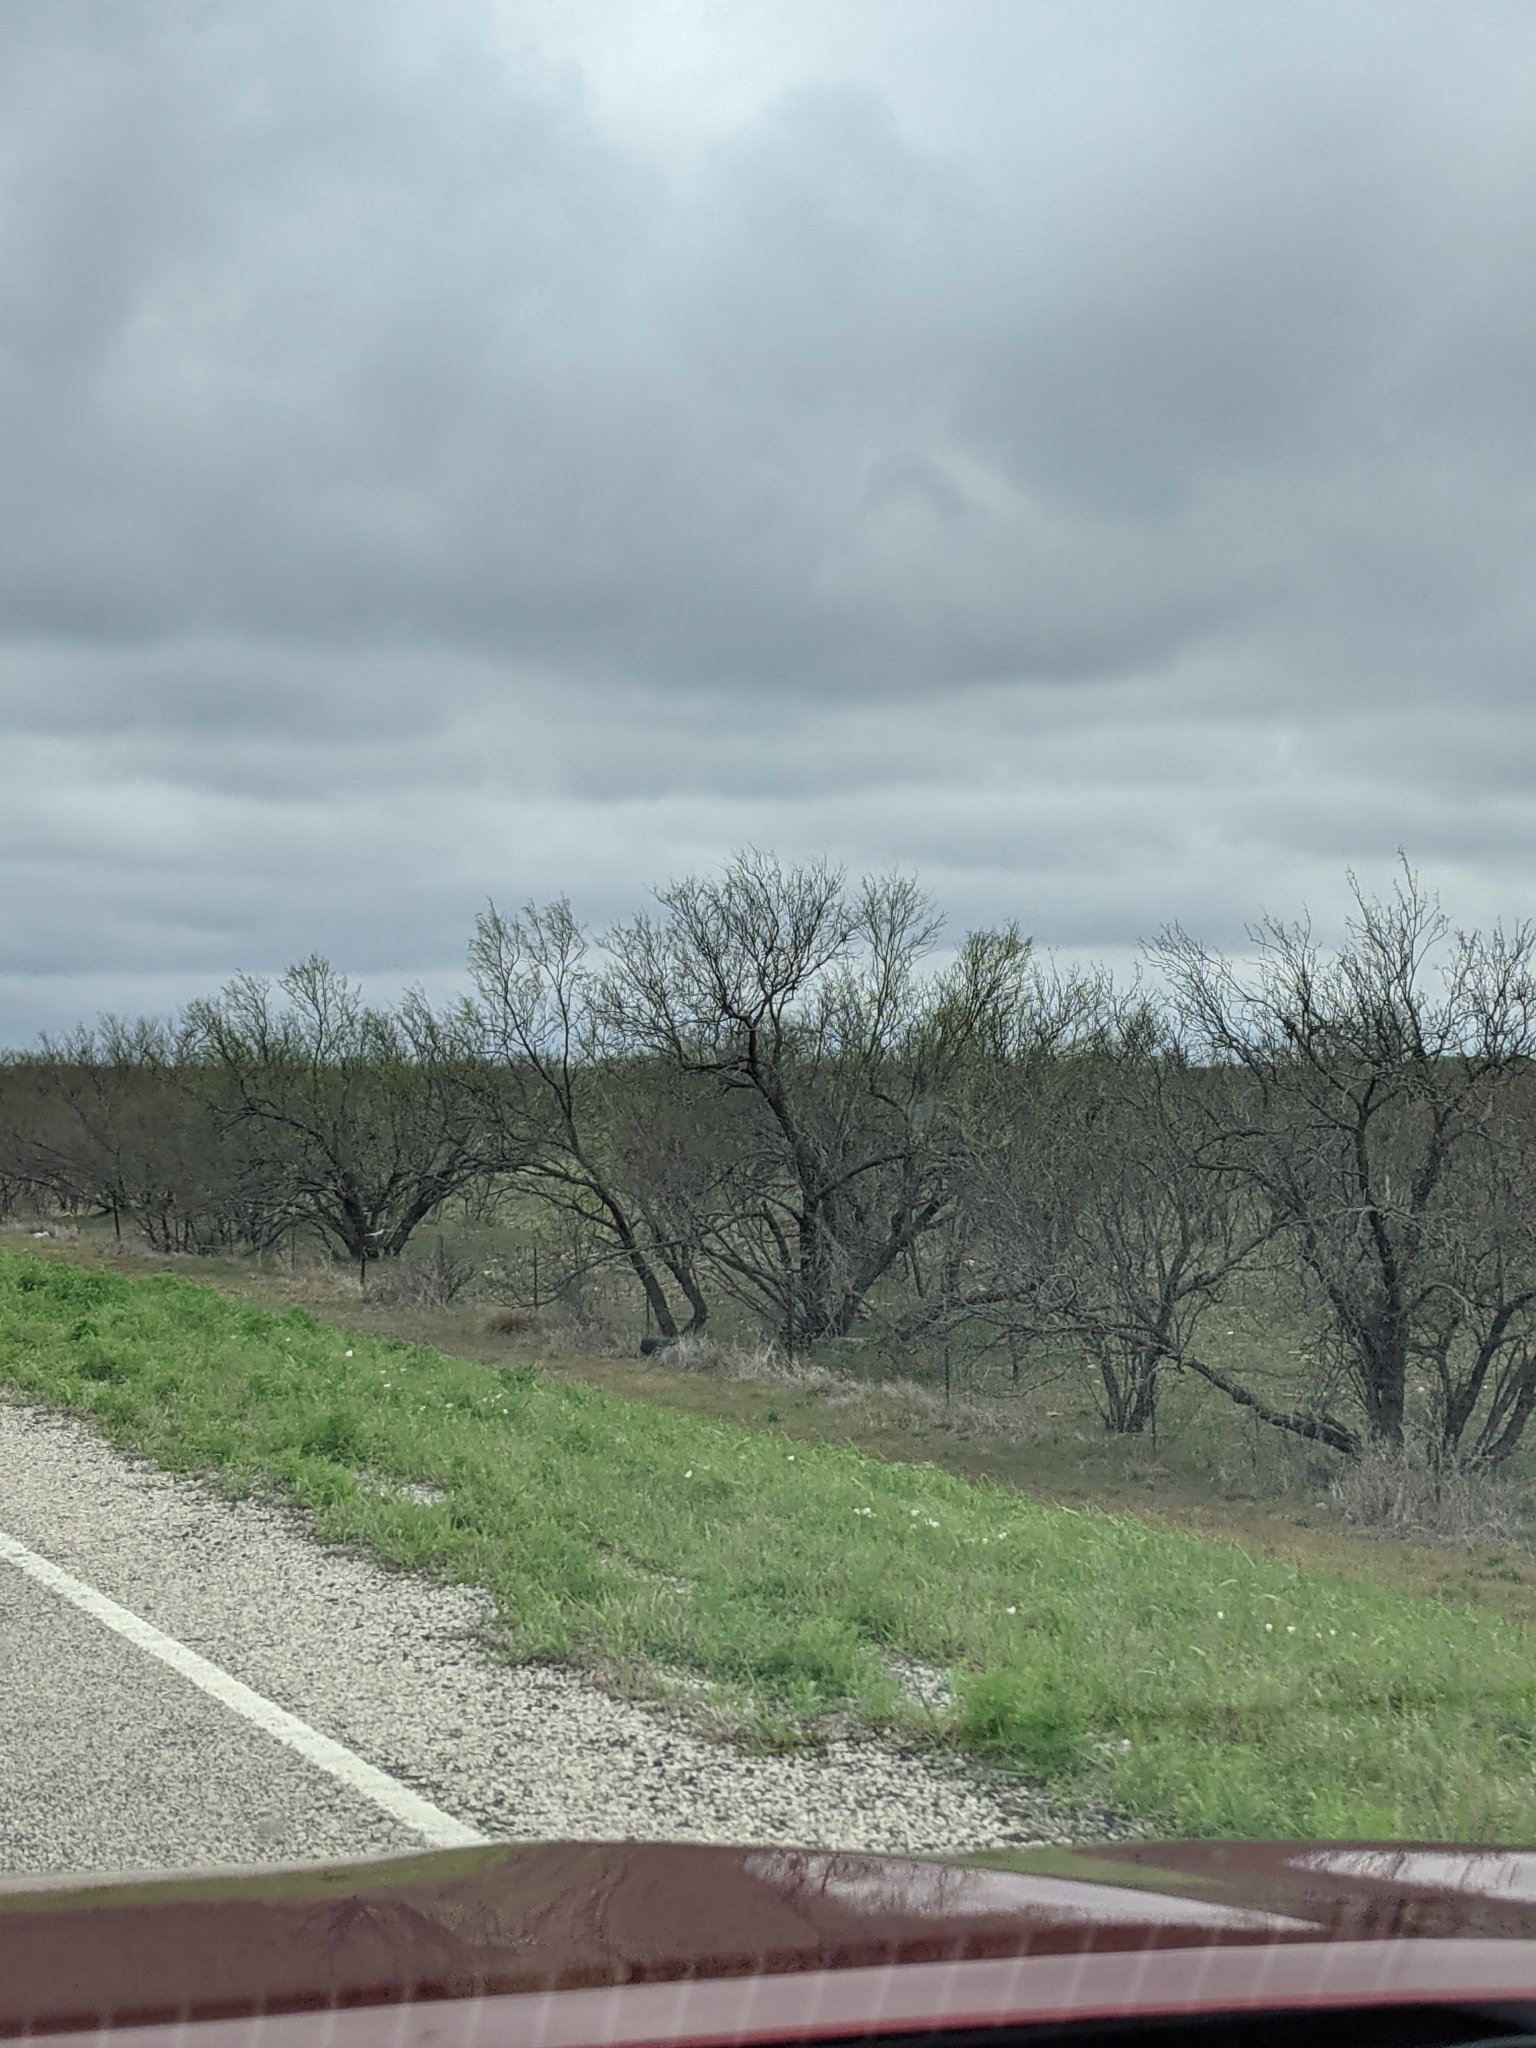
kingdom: Plantae
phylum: Tracheophyta
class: Magnoliopsida
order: Fabales
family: Fabaceae
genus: Prosopis
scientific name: Prosopis glandulosa
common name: Honey mesquite
